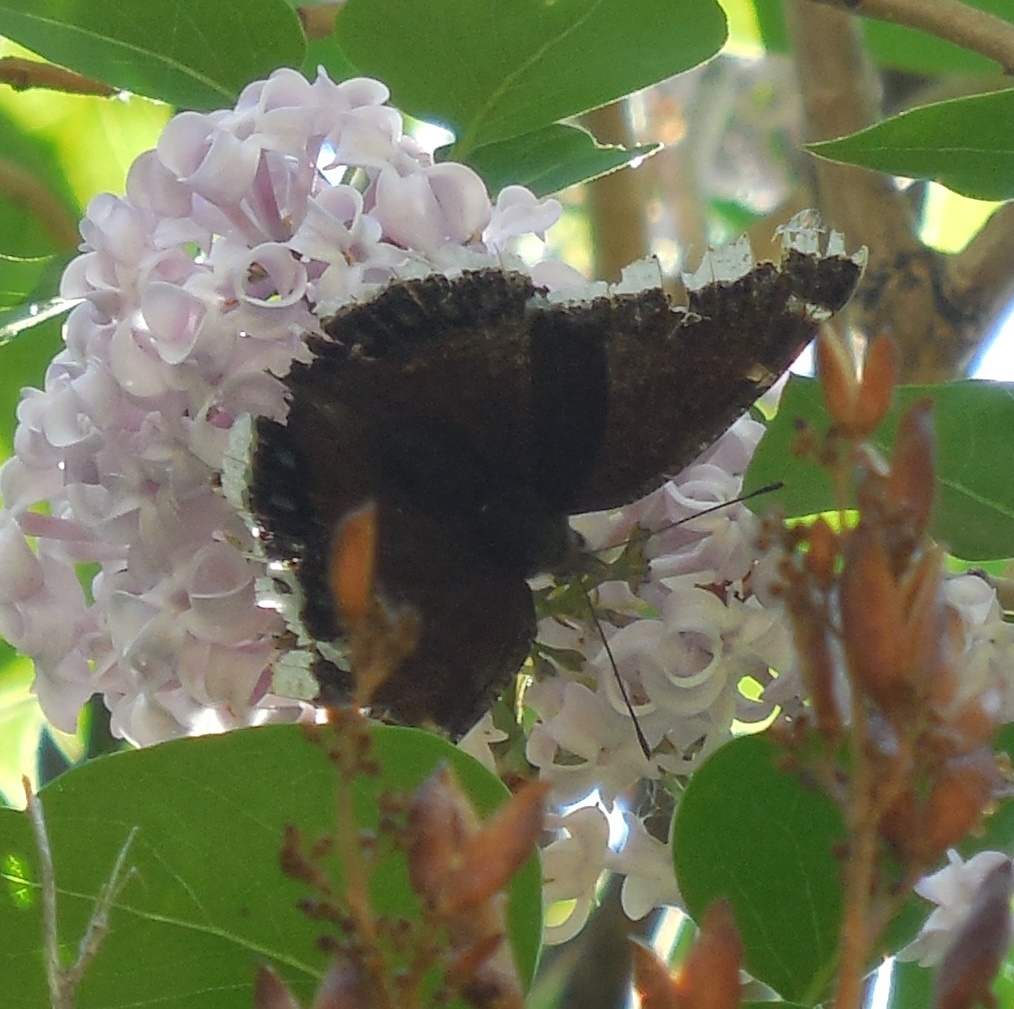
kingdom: Animalia
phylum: Arthropoda
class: Insecta
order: Lepidoptera
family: Nymphalidae
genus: Nymphalis
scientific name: Nymphalis antiopa
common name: Camberwell beauty
